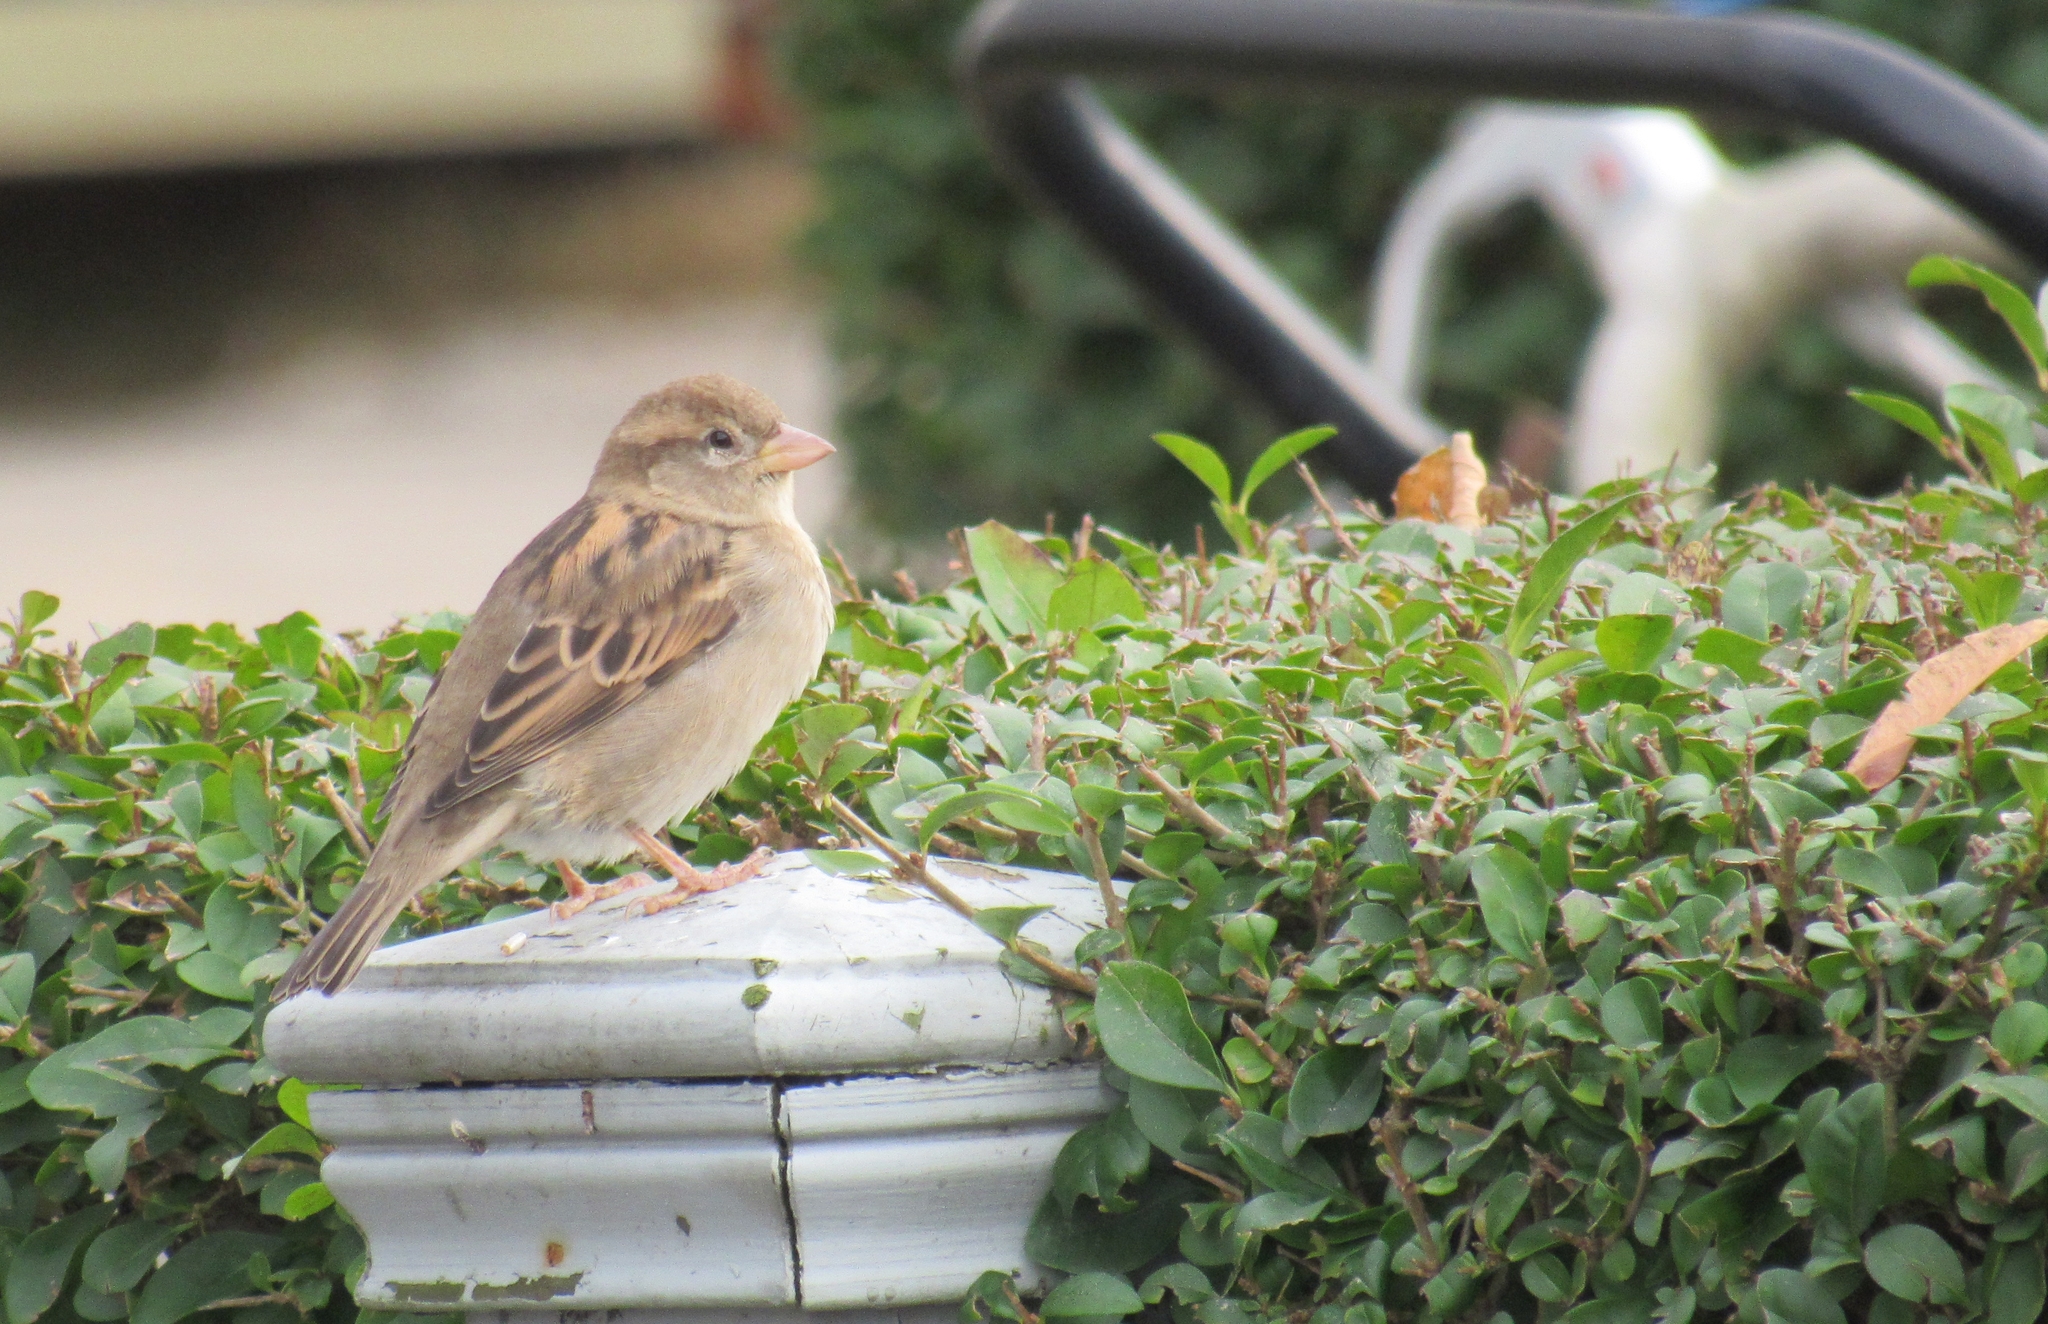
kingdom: Animalia
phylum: Chordata
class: Aves
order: Passeriformes
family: Passeridae
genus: Passer
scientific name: Passer domesticus
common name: House sparrow
